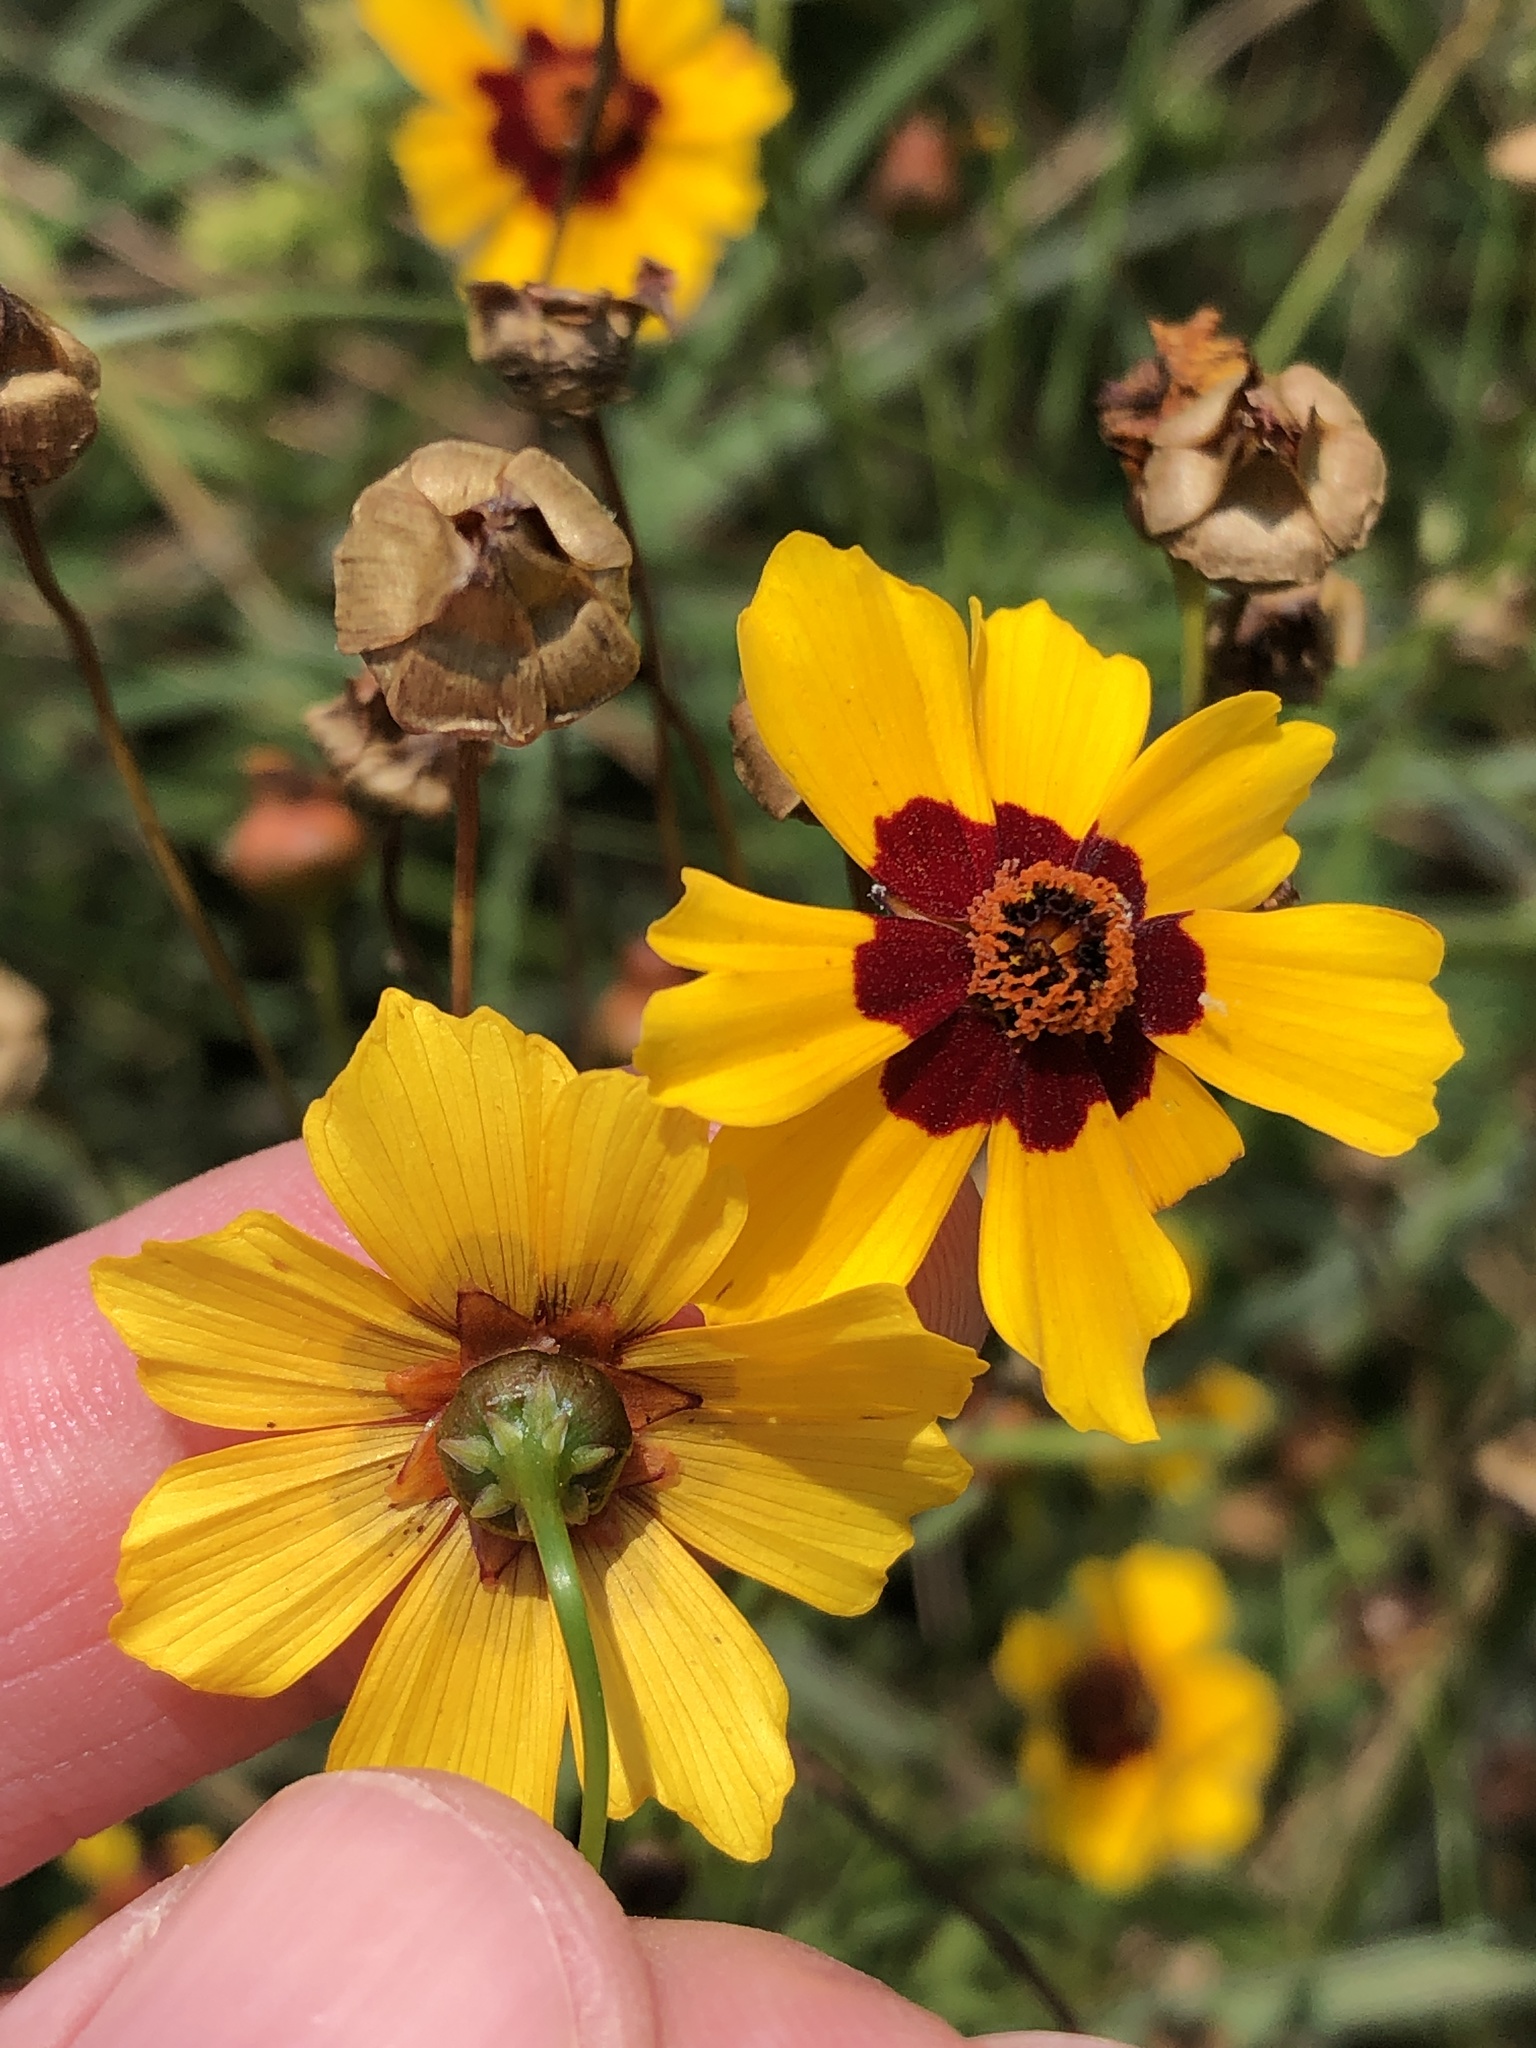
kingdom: Plantae
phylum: Tracheophyta
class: Magnoliopsida
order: Asterales
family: Asteraceae
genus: Coreopsis
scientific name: Coreopsis tinctoria
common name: Garden tickseed
